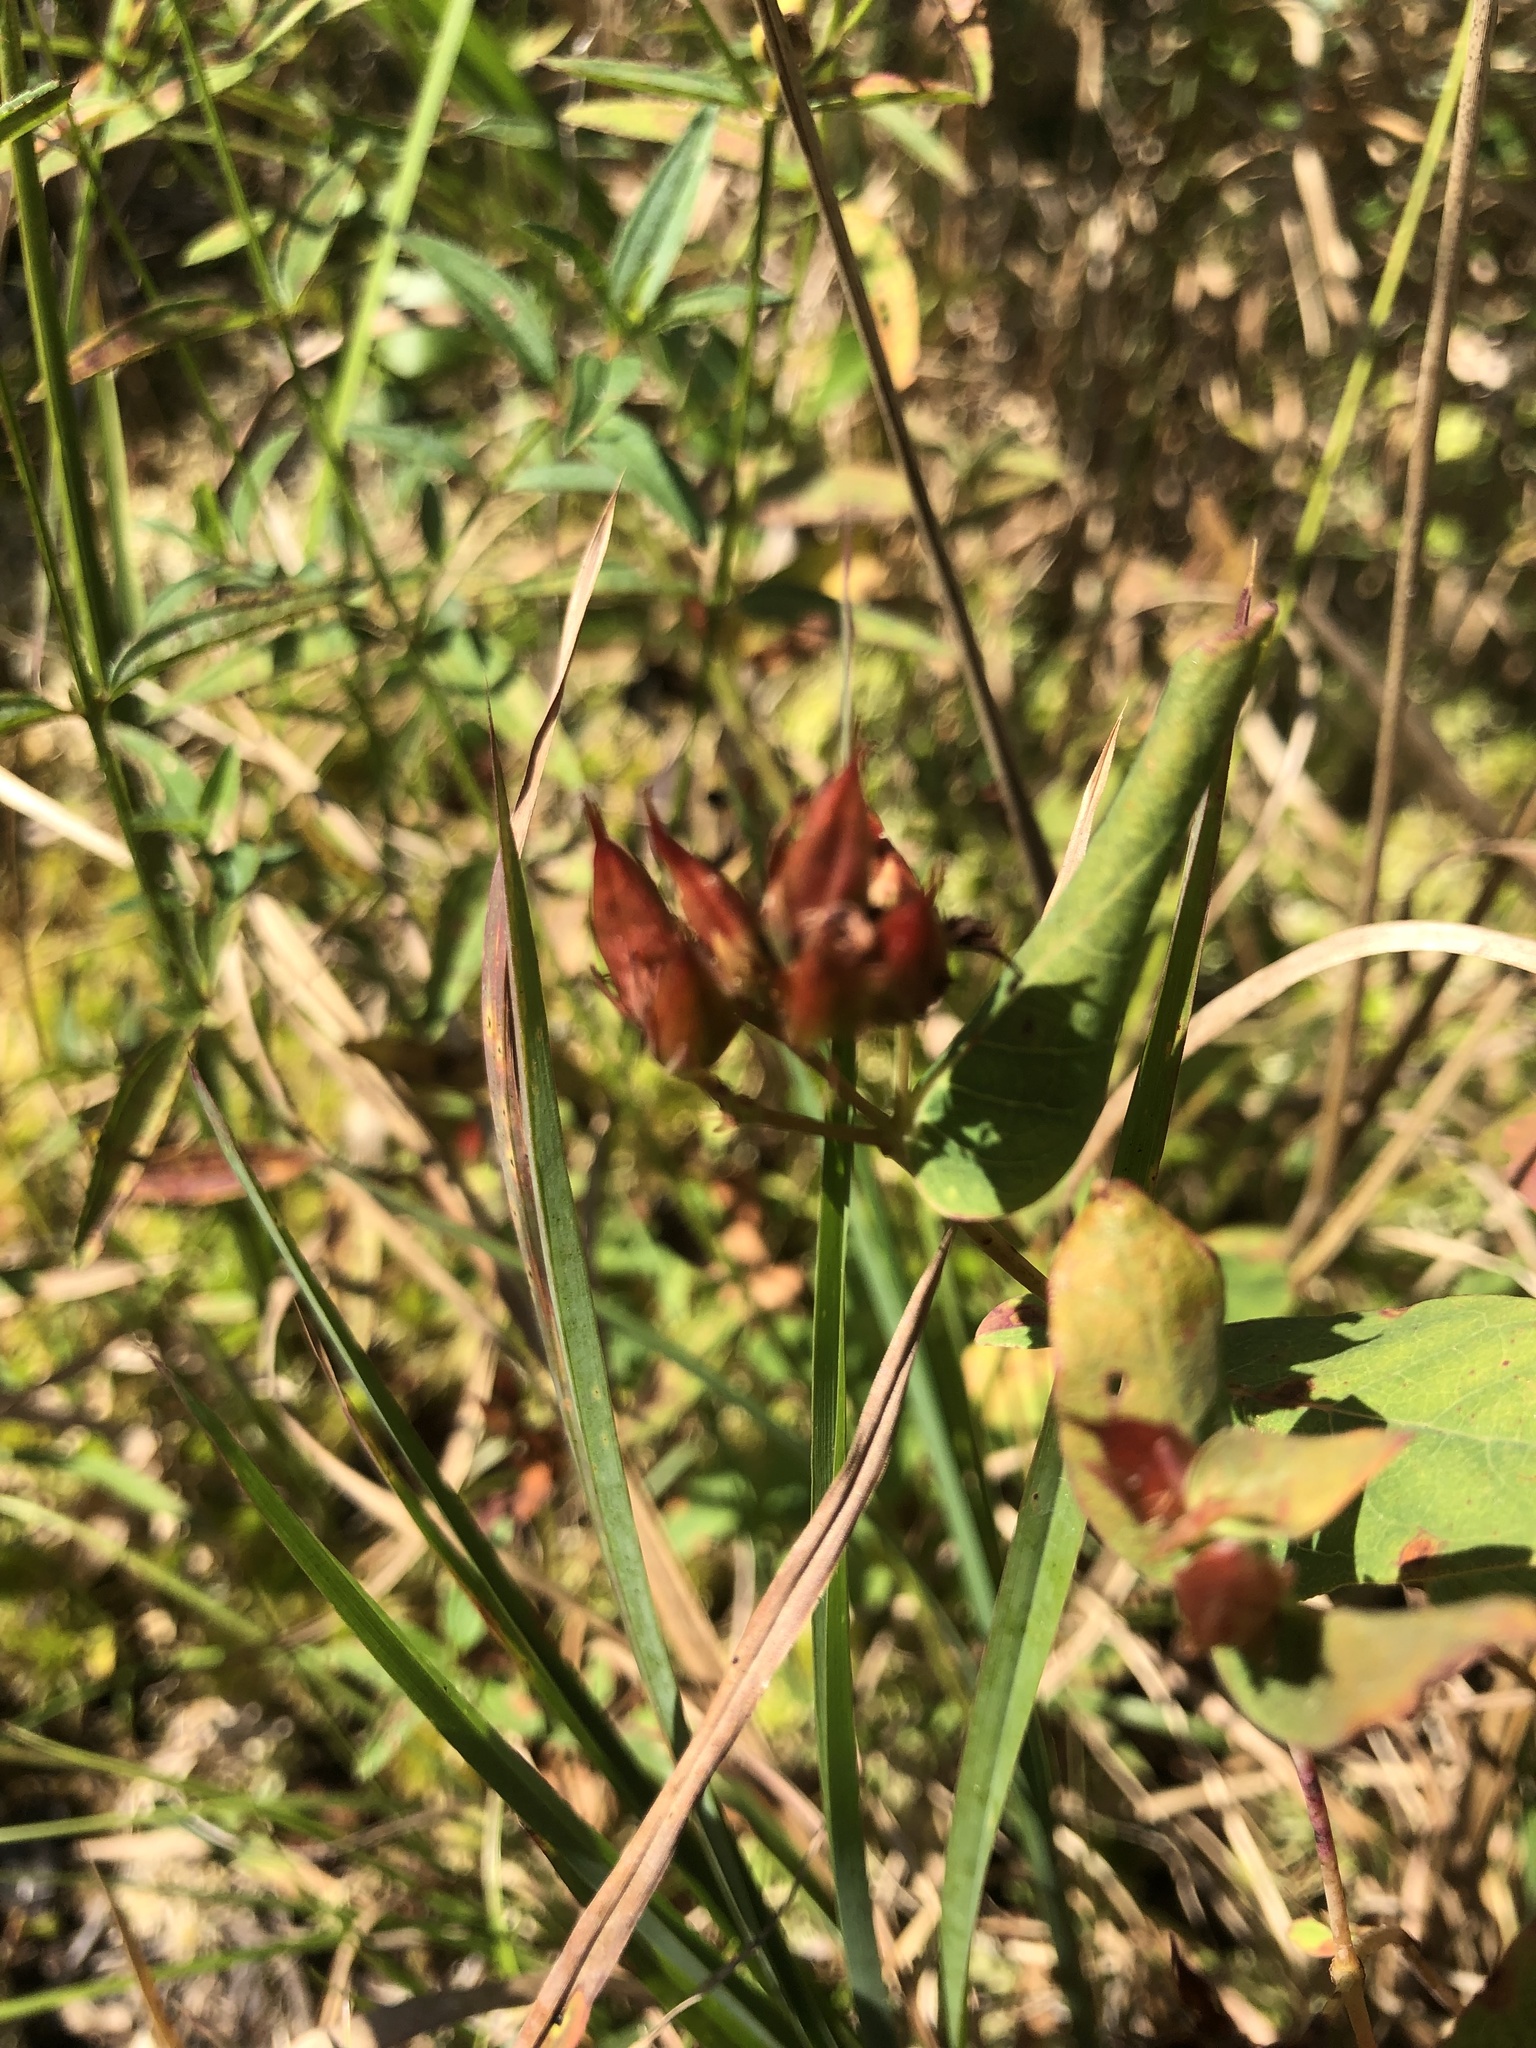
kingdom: Plantae
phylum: Tracheophyta
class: Magnoliopsida
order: Malpighiales
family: Hypericaceae
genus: Triadenum
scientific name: Triadenum virginicum
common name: Marsh st. john's-wort
